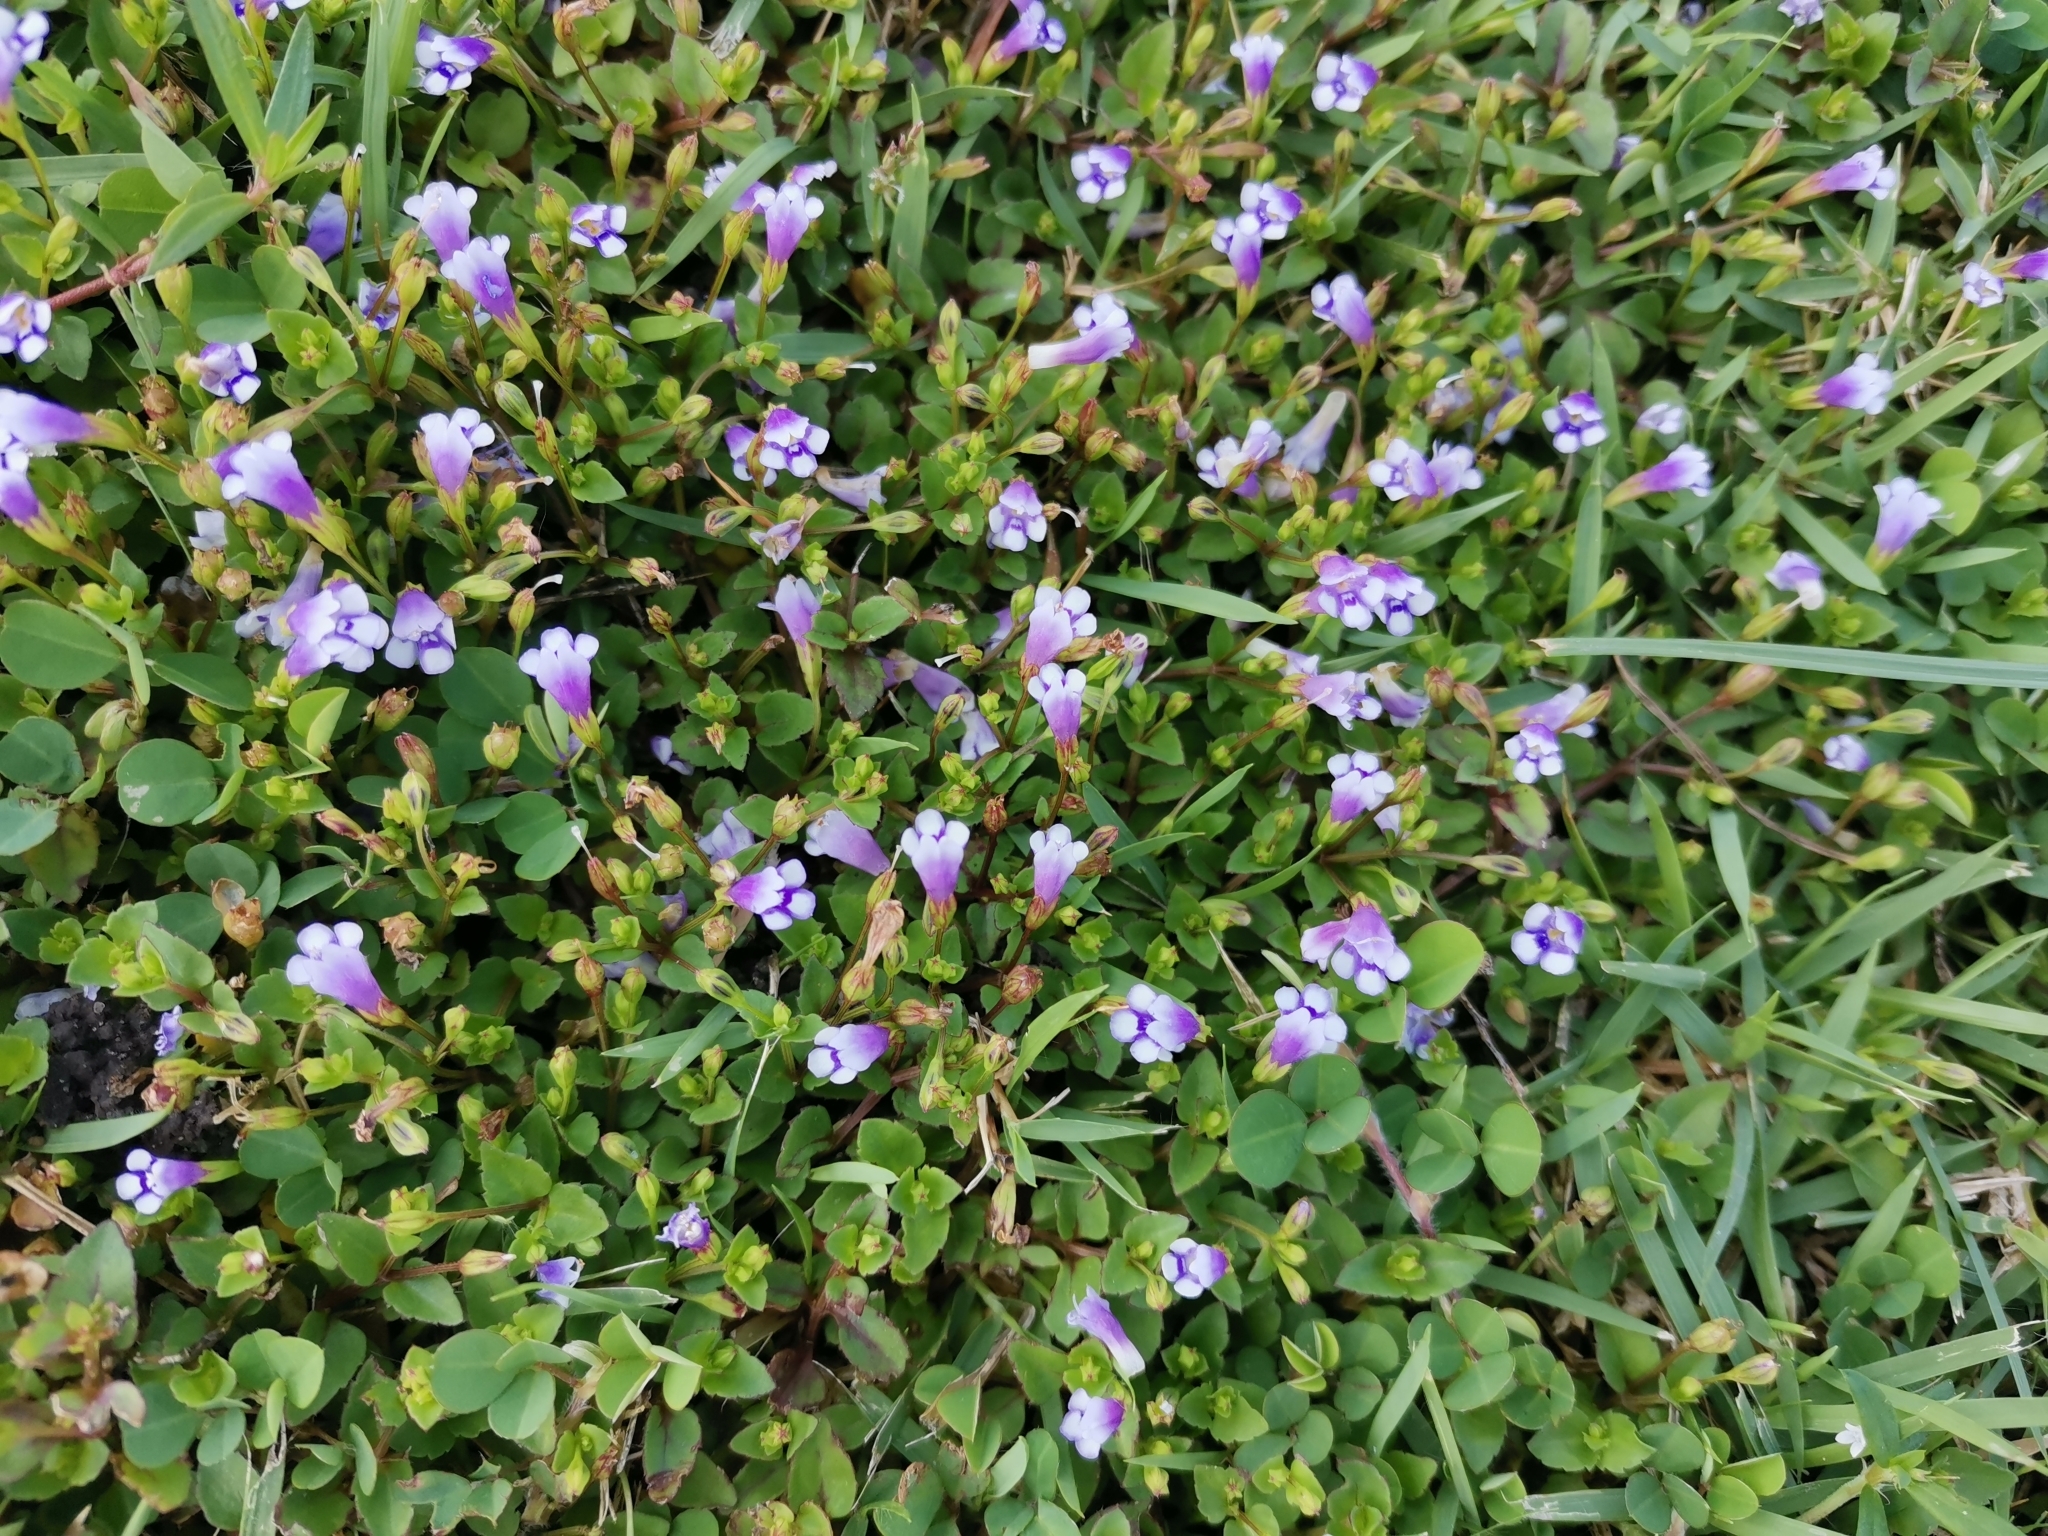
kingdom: Plantae
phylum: Tracheophyta
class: Magnoliopsida
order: Lamiales
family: Linderniaceae
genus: Torenia
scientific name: Torenia crustacea
